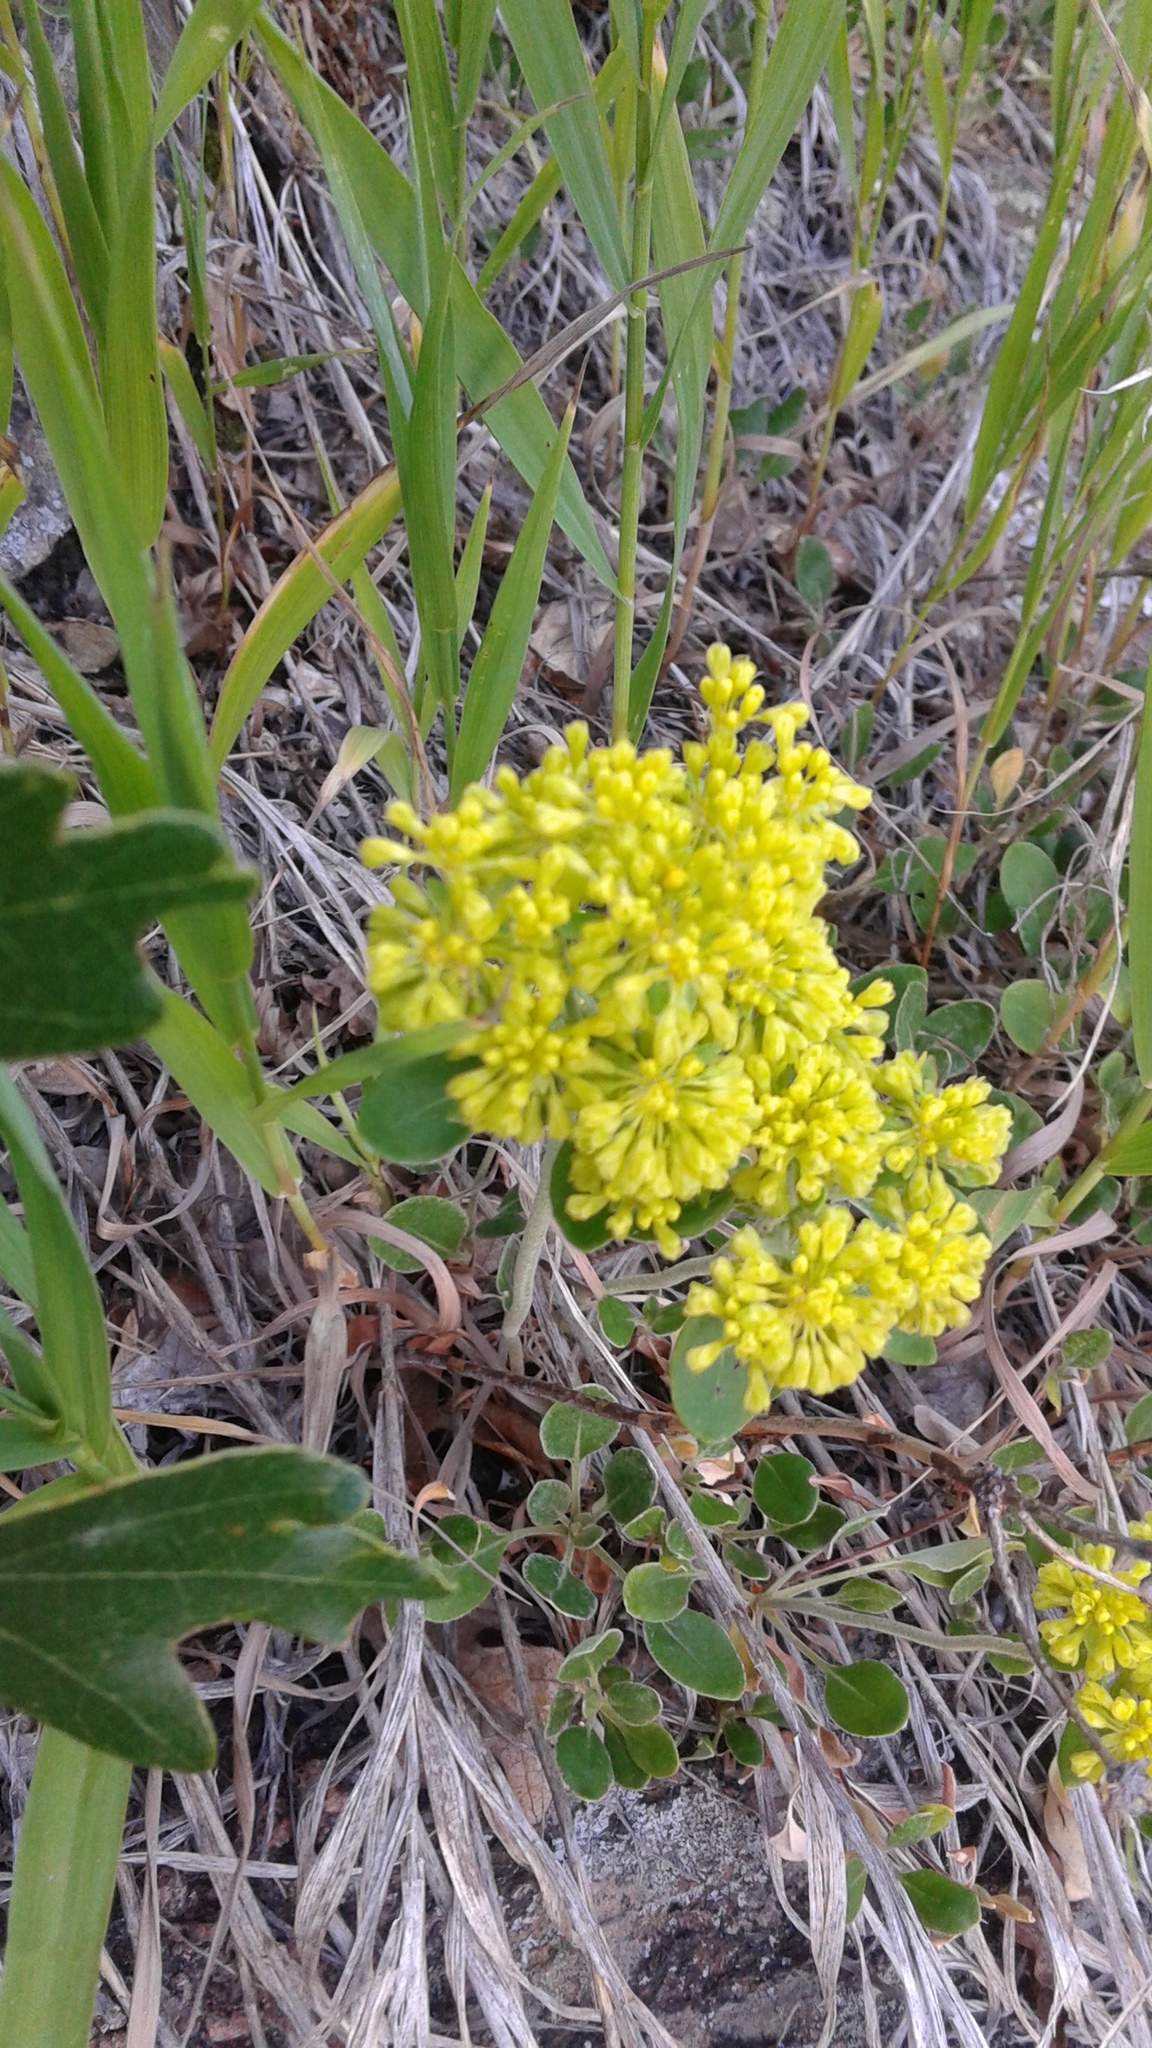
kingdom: Plantae
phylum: Tracheophyta
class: Magnoliopsida
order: Caryophyllales
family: Polygonaceae
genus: Eriogonum
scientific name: Eriogonum umbellatum
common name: Sulfur-buckwheat
